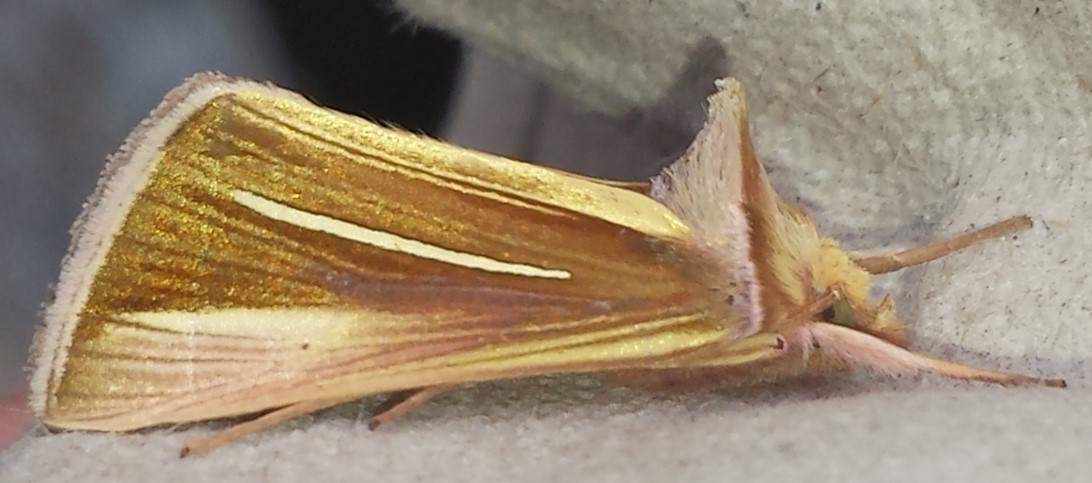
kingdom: Animalia
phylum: Arthropoda
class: Insecta
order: Lepidoptera
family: Noctuidae
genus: Plusia
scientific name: Plusia venusta
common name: White-streaked looper moth
